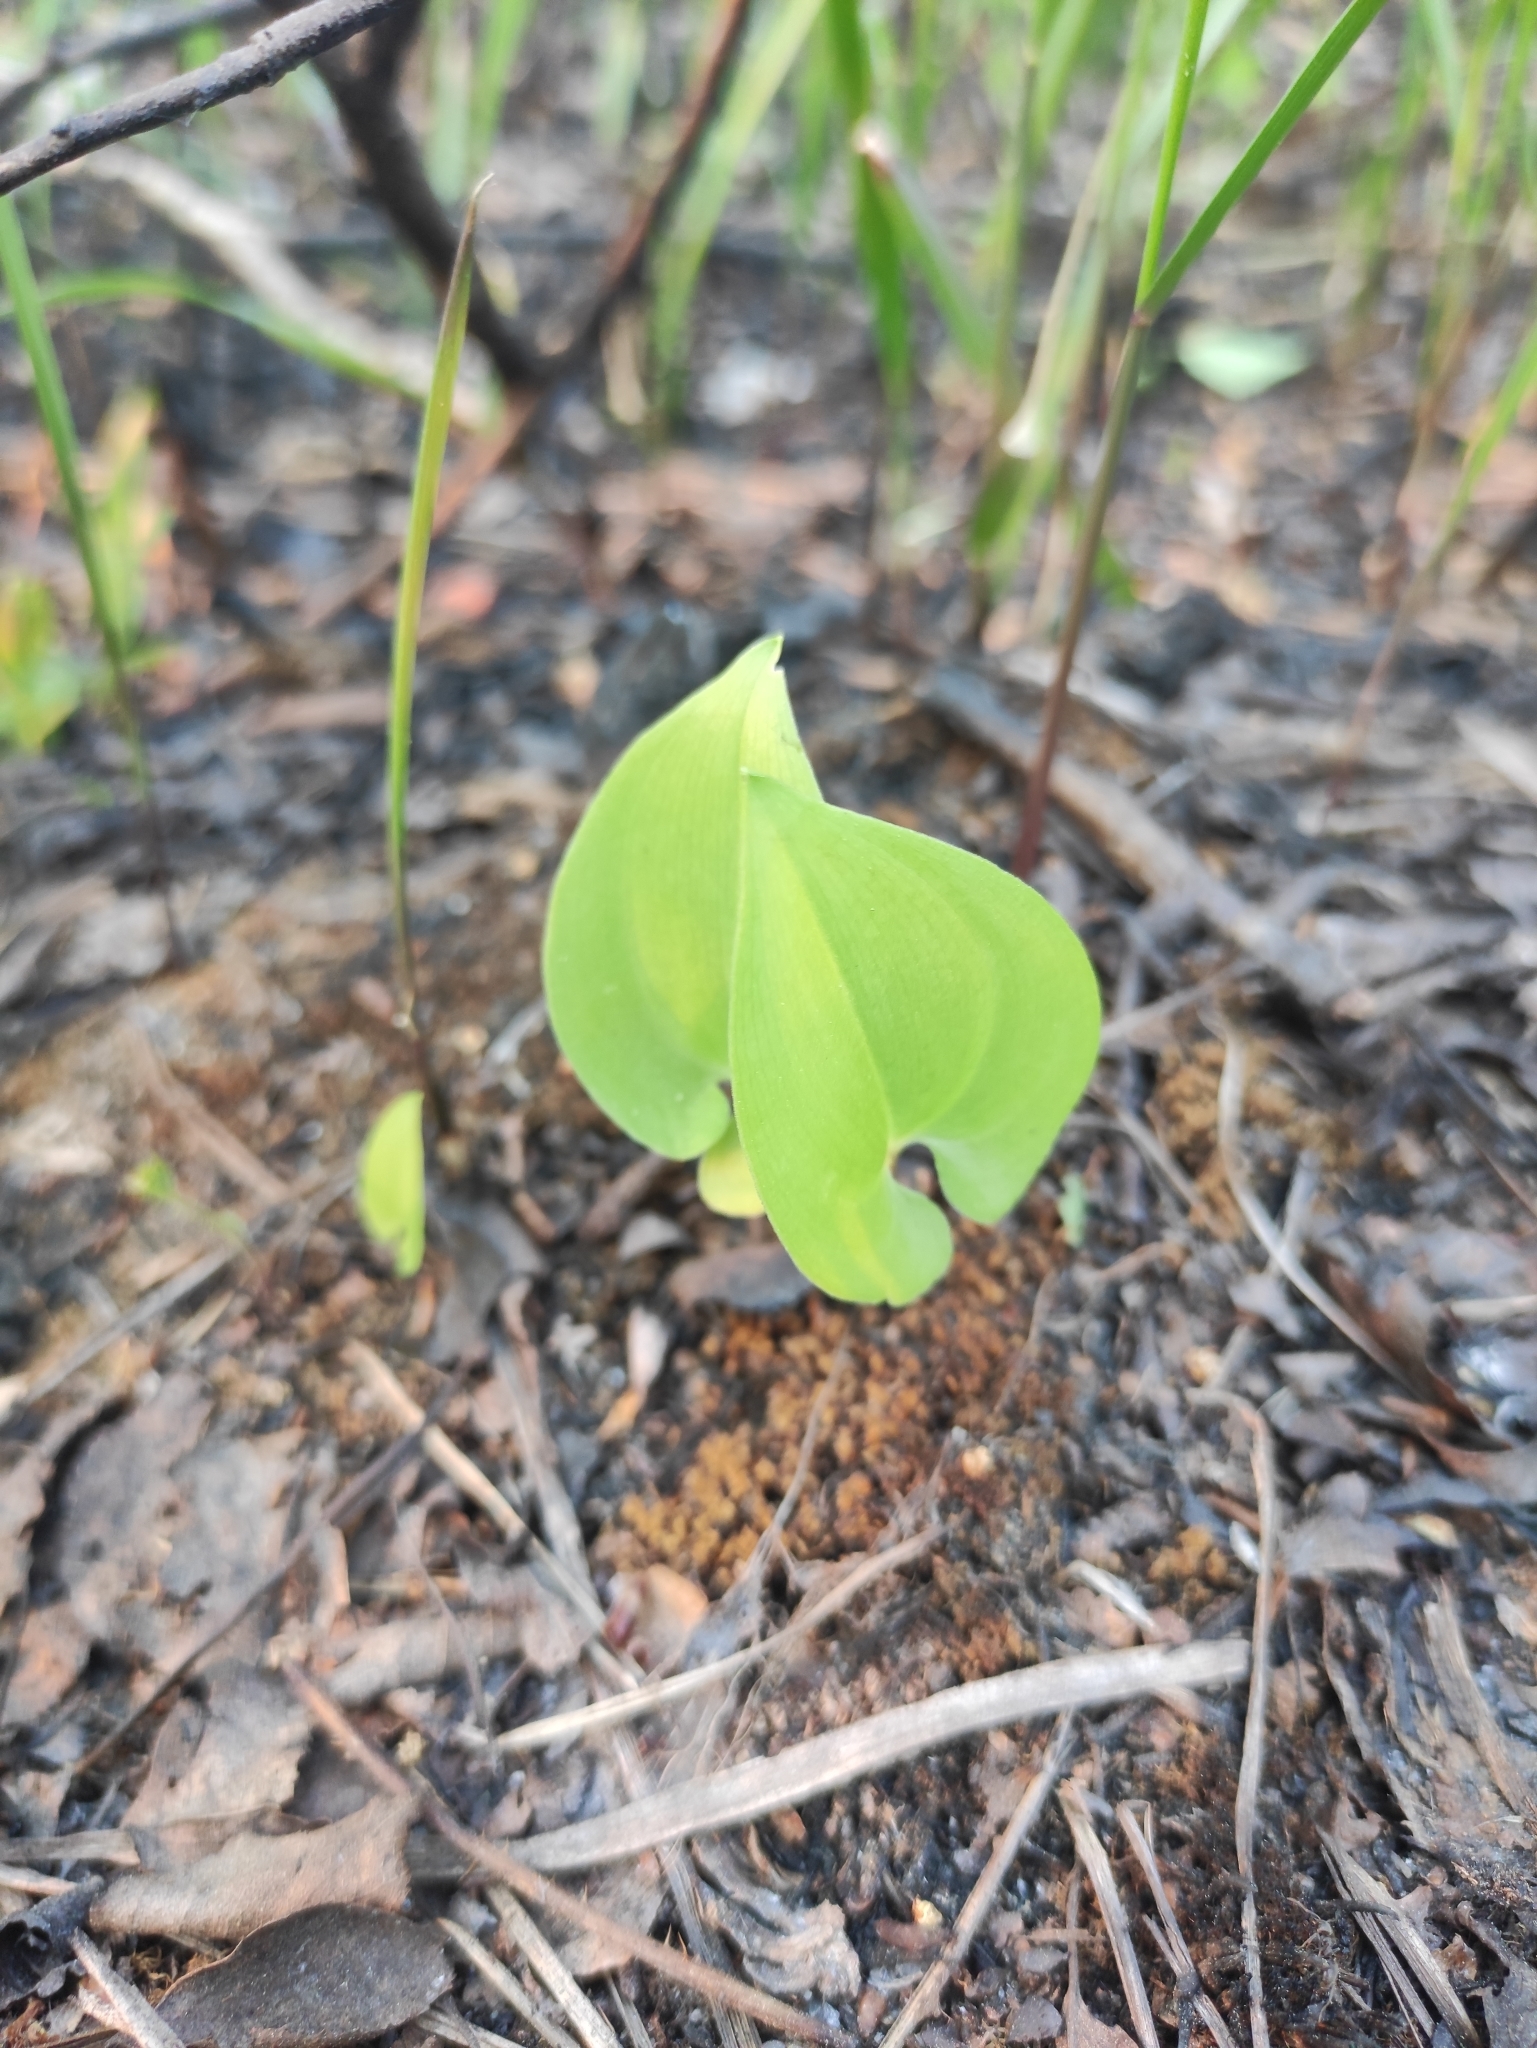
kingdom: Plantae
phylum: Tracheophyta
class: Liliopsida
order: Asparagales
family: Asparagaceae
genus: Maianthemum
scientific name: Maianthemum bifolium
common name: May lily
